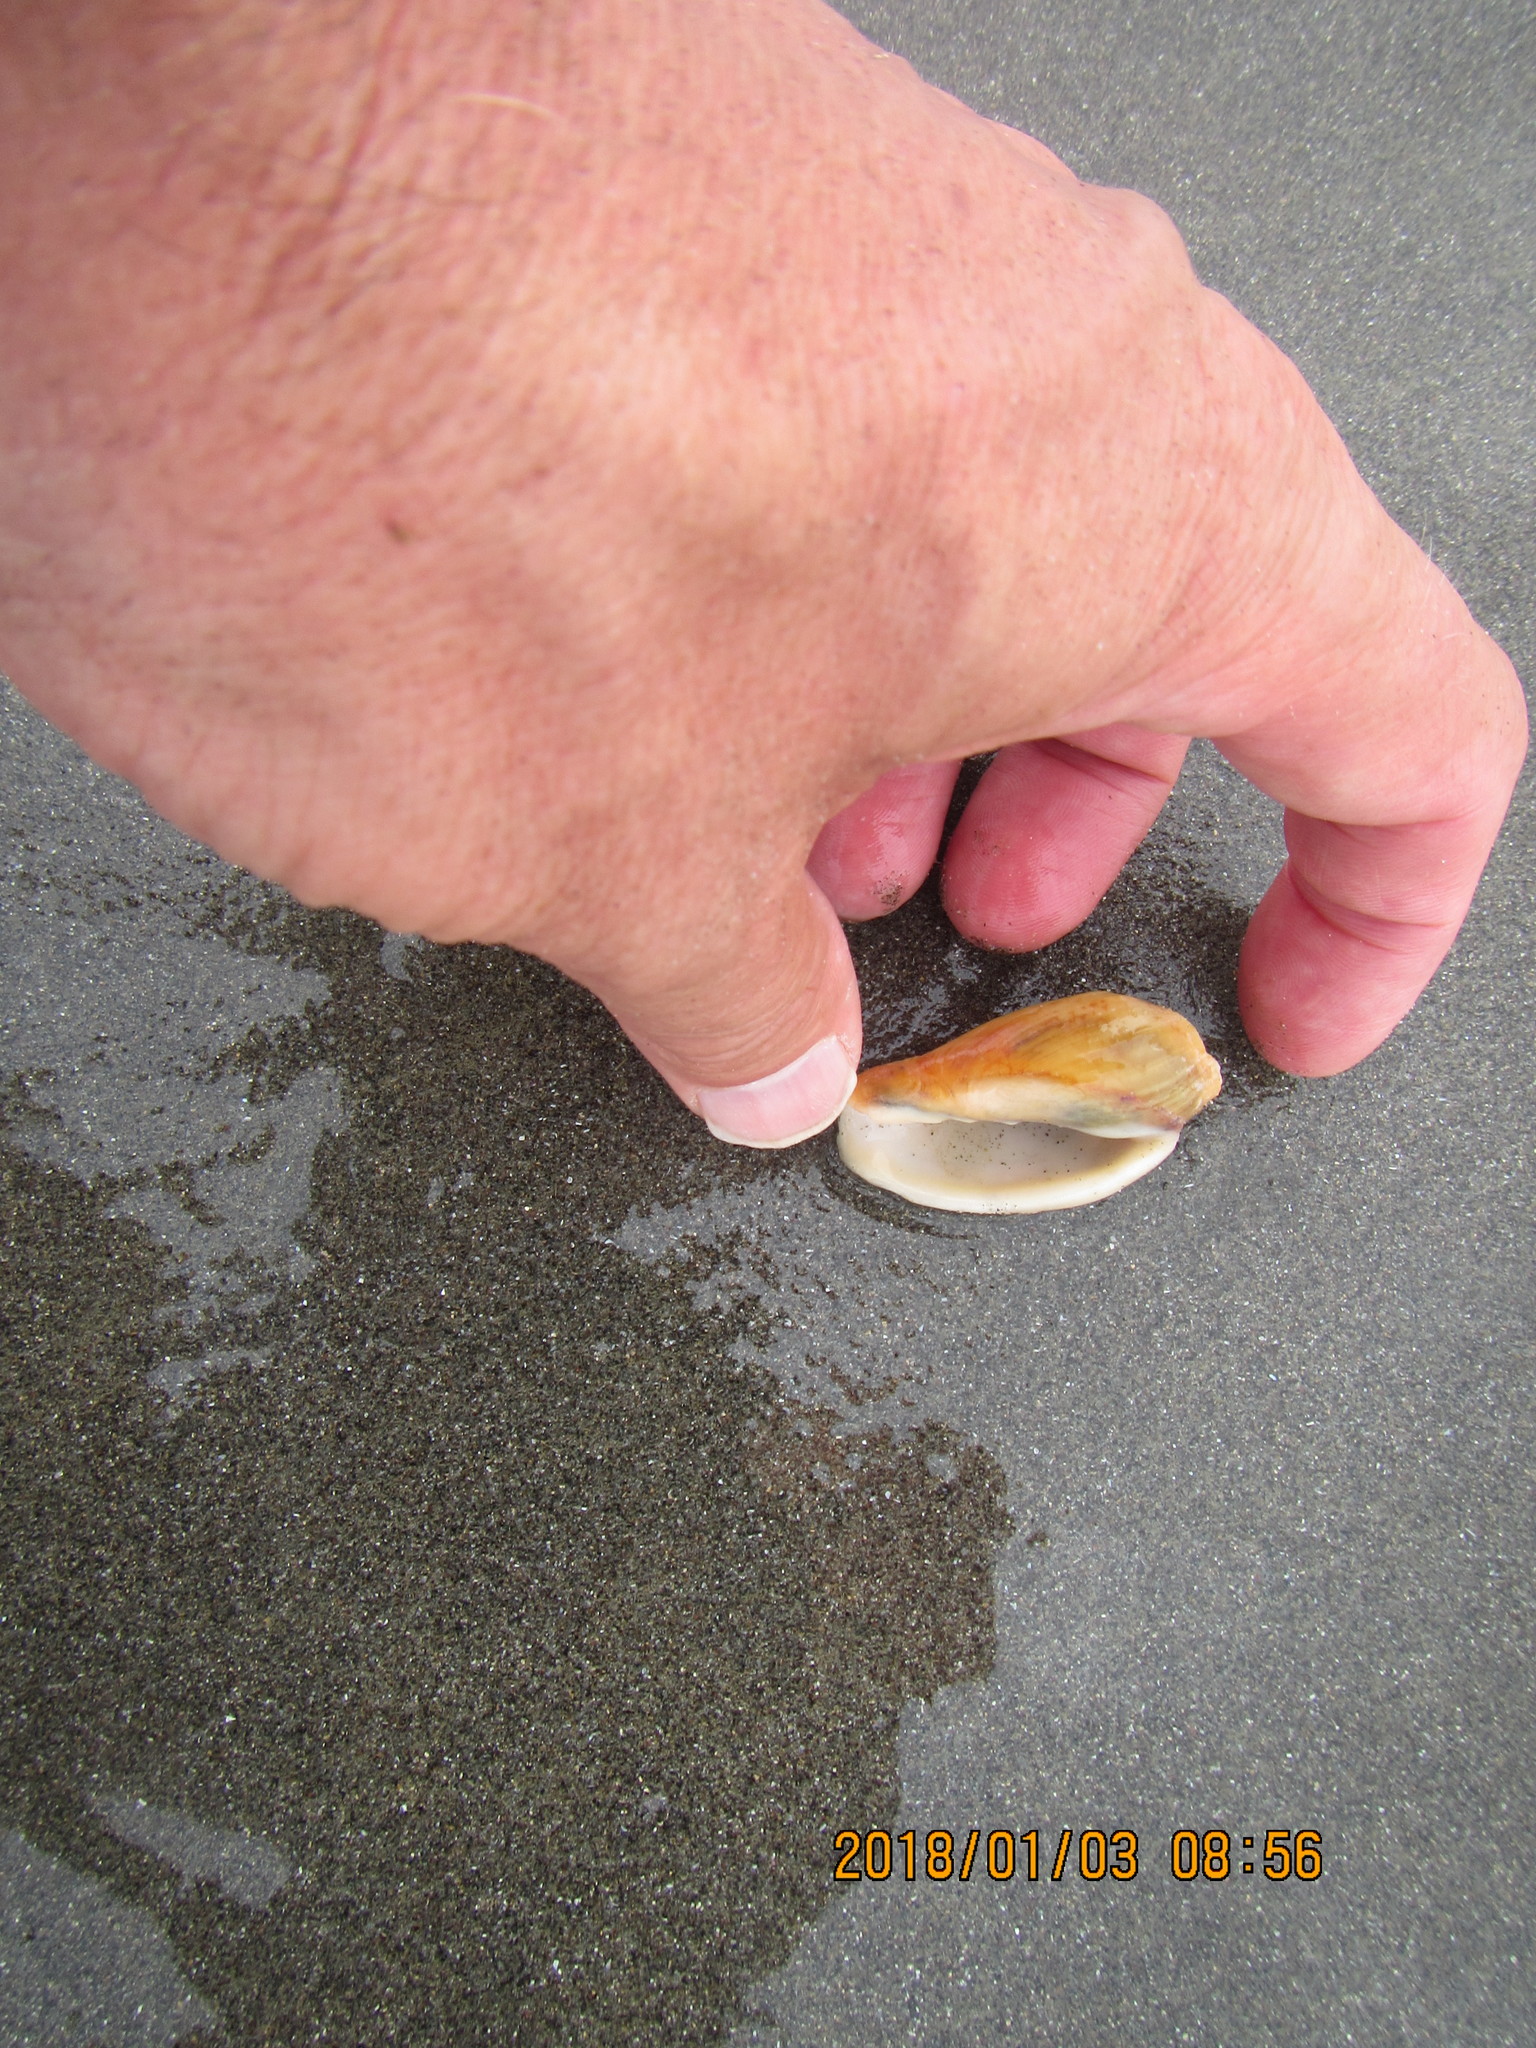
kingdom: Animalia
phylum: Mollusca
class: Gastropoda
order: Neogastropoda
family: Volutidae
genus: Alcithoe
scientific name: Alcithoe fusus
